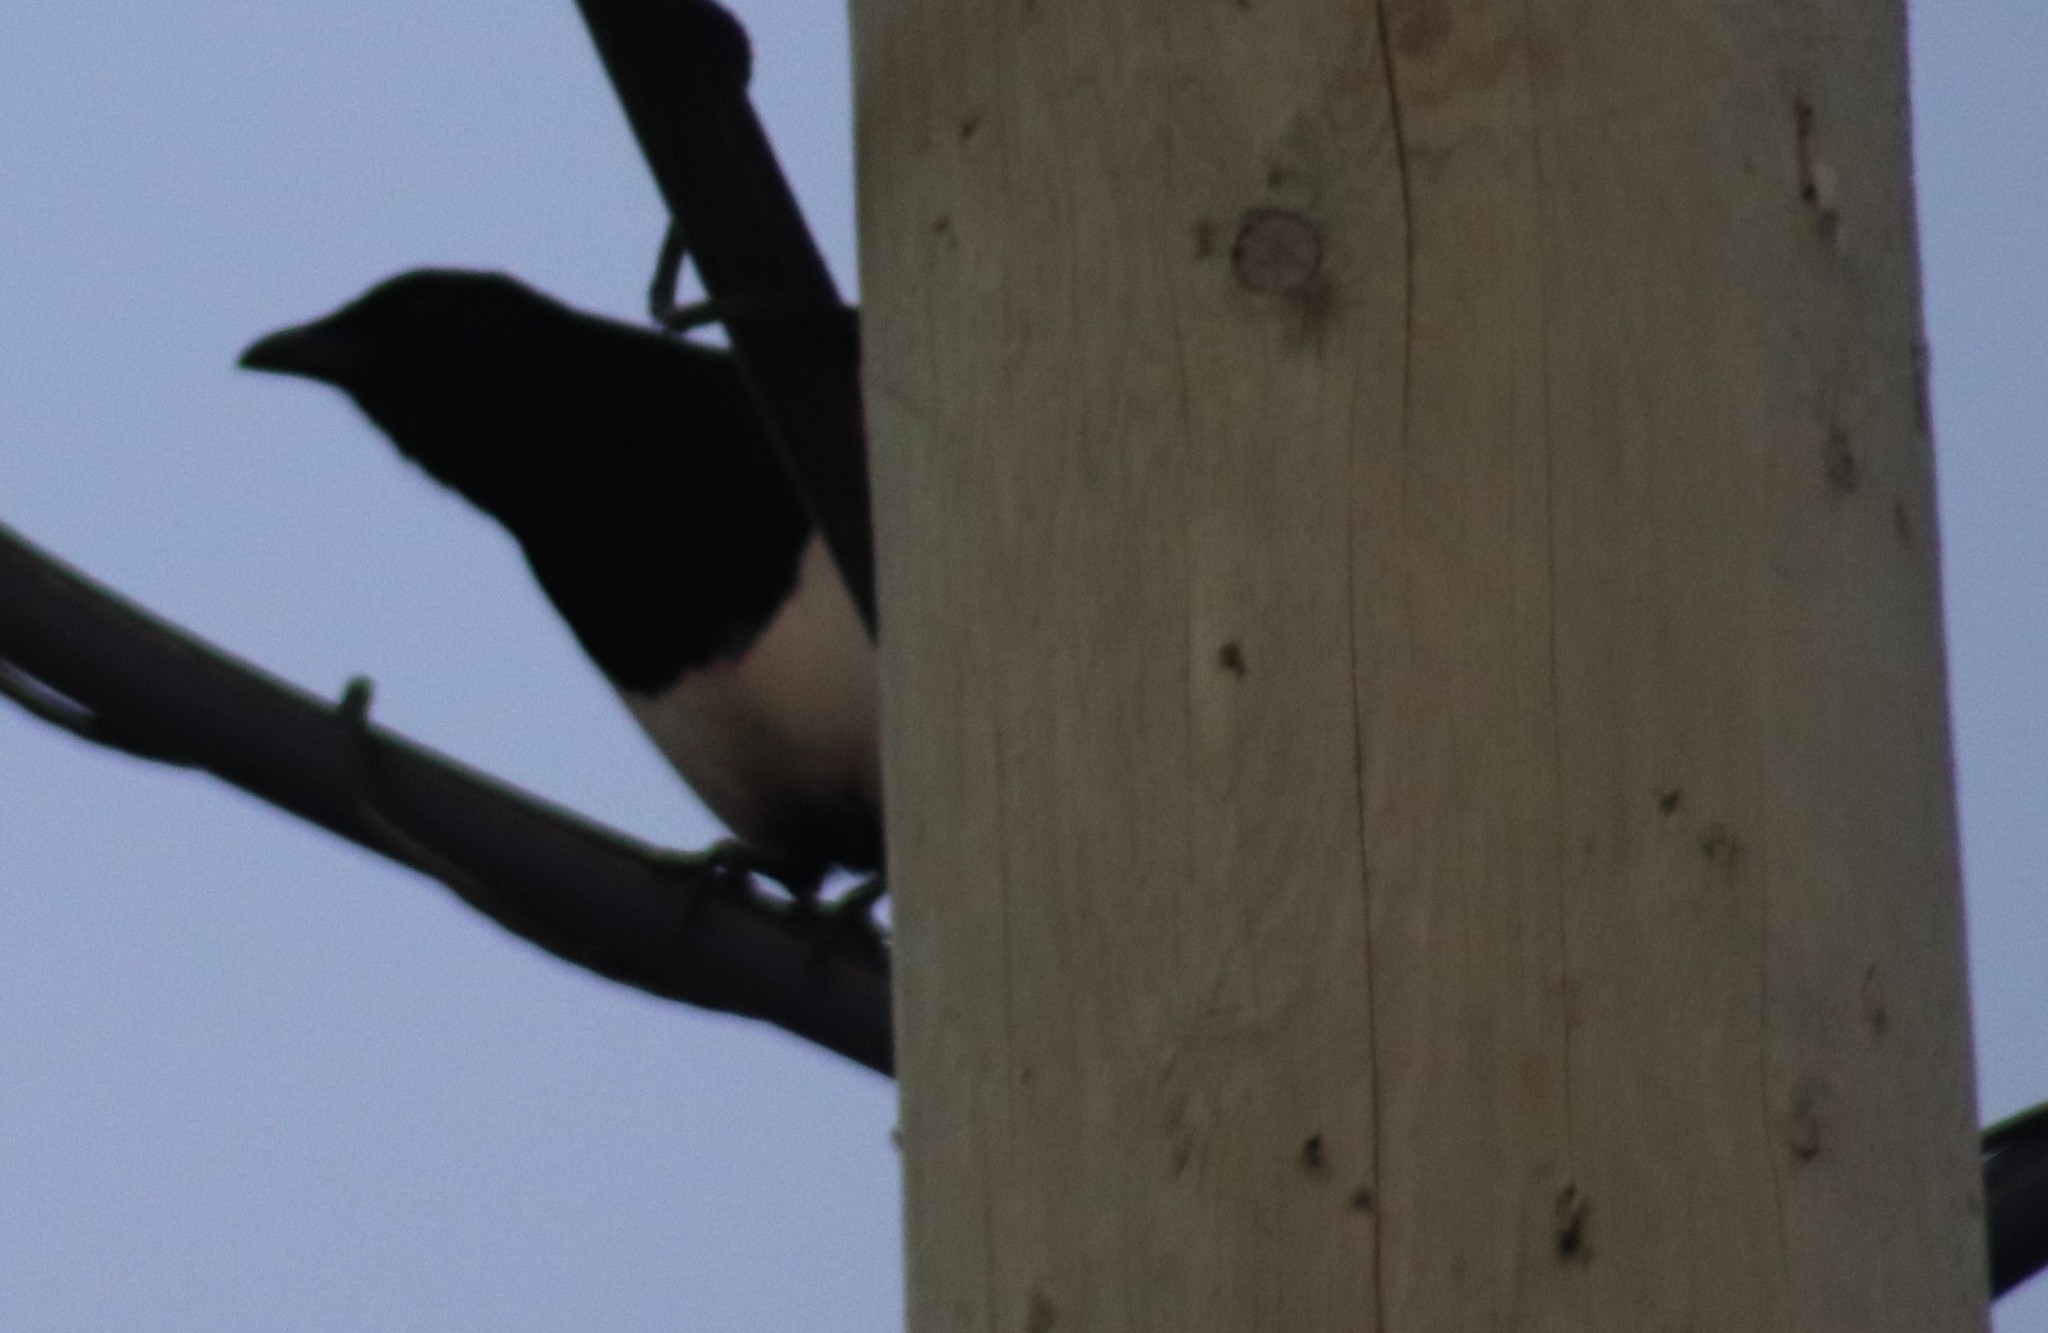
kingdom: Animalia
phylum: Chordata
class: Aves
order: Passeriformes
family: Corvidae
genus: Pica
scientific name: Pica hudsonia
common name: Black-billed magpie
